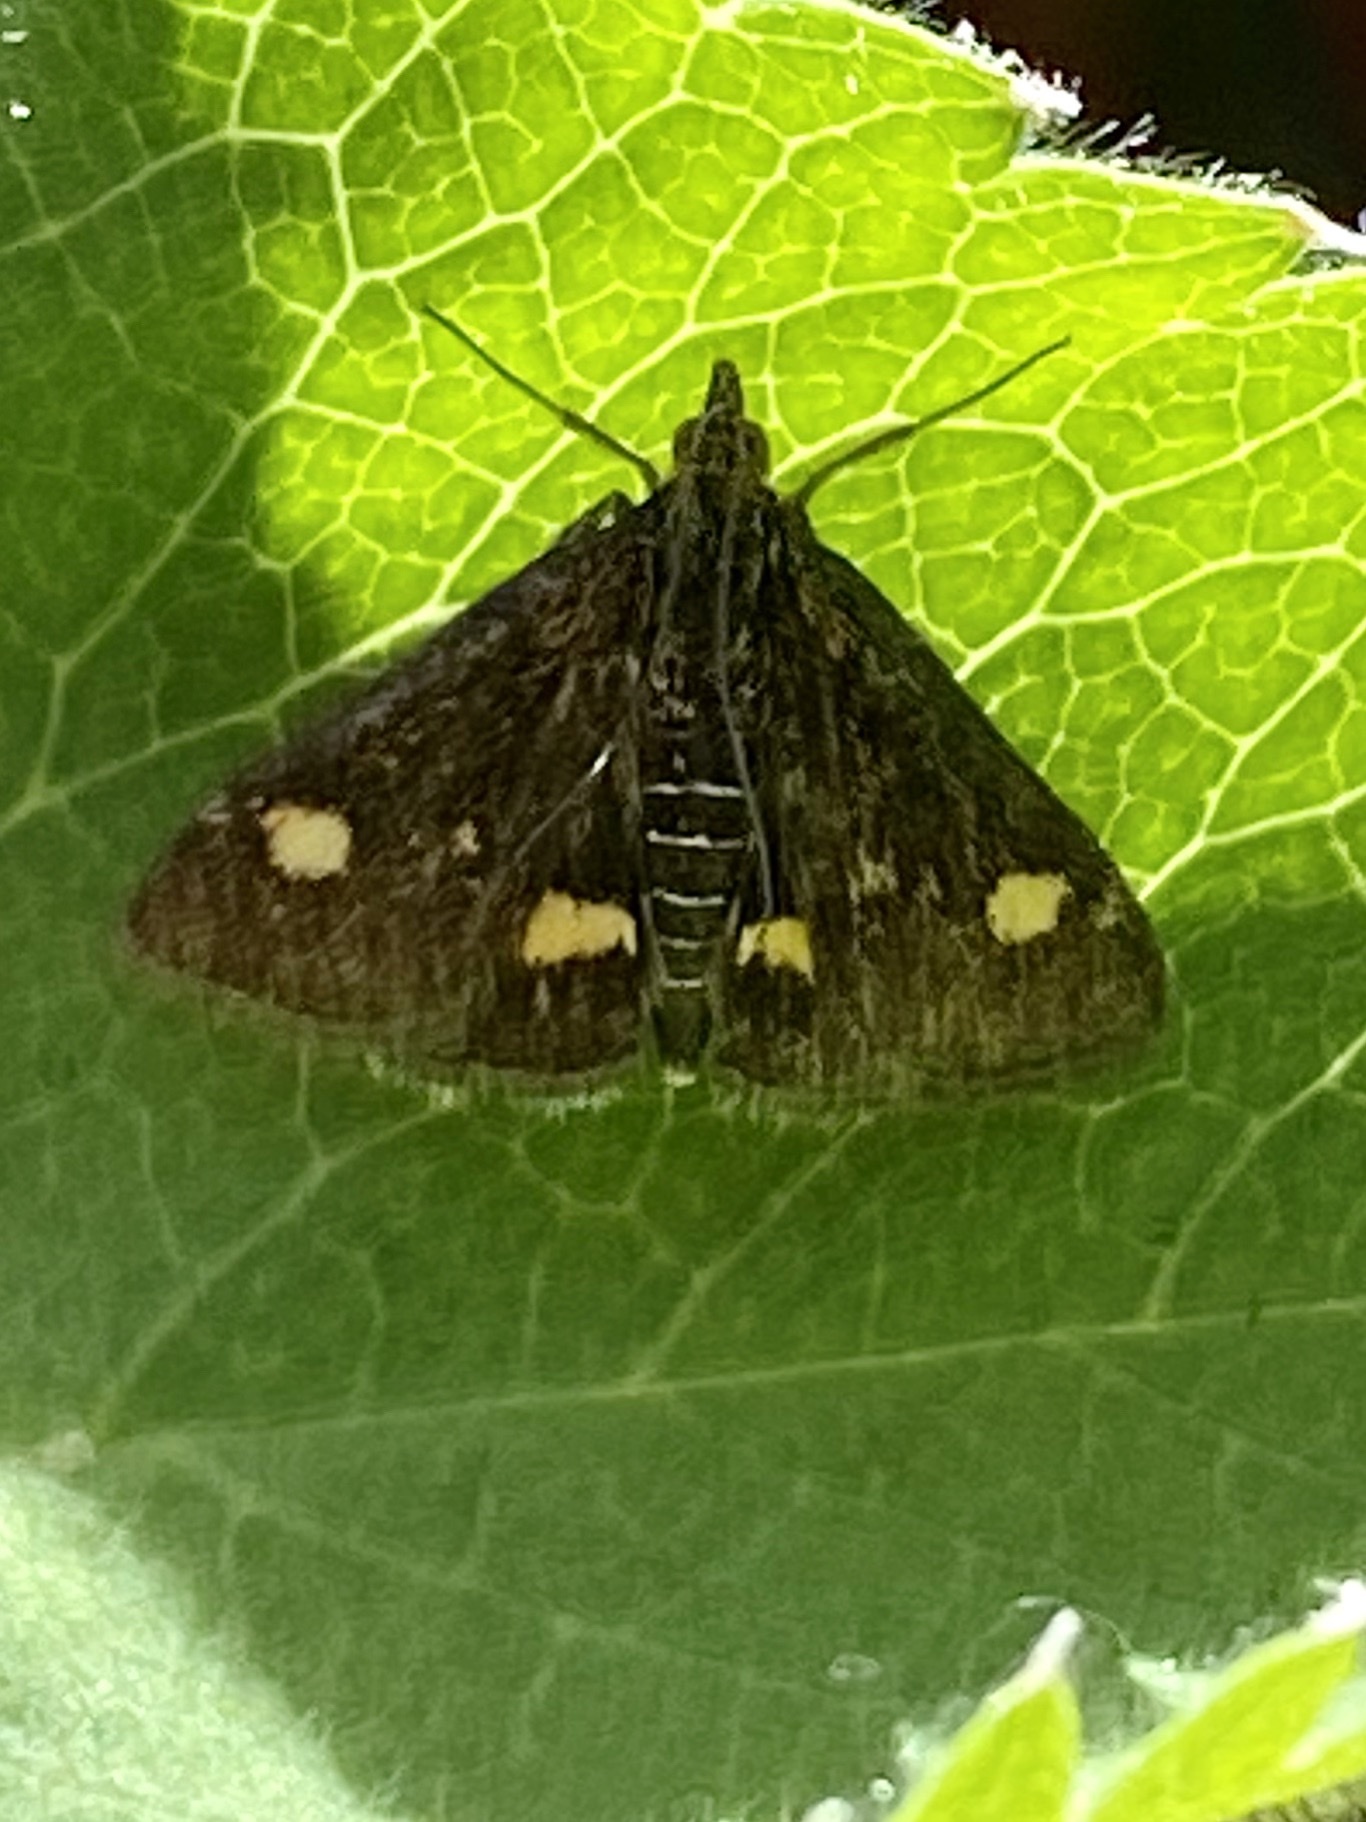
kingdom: Animalia
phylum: Arthropoda
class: Insecta
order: Lepidoptera
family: Crambidae
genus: Pyrausta
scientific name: Pyrausta aurata
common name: Small purple & gold
